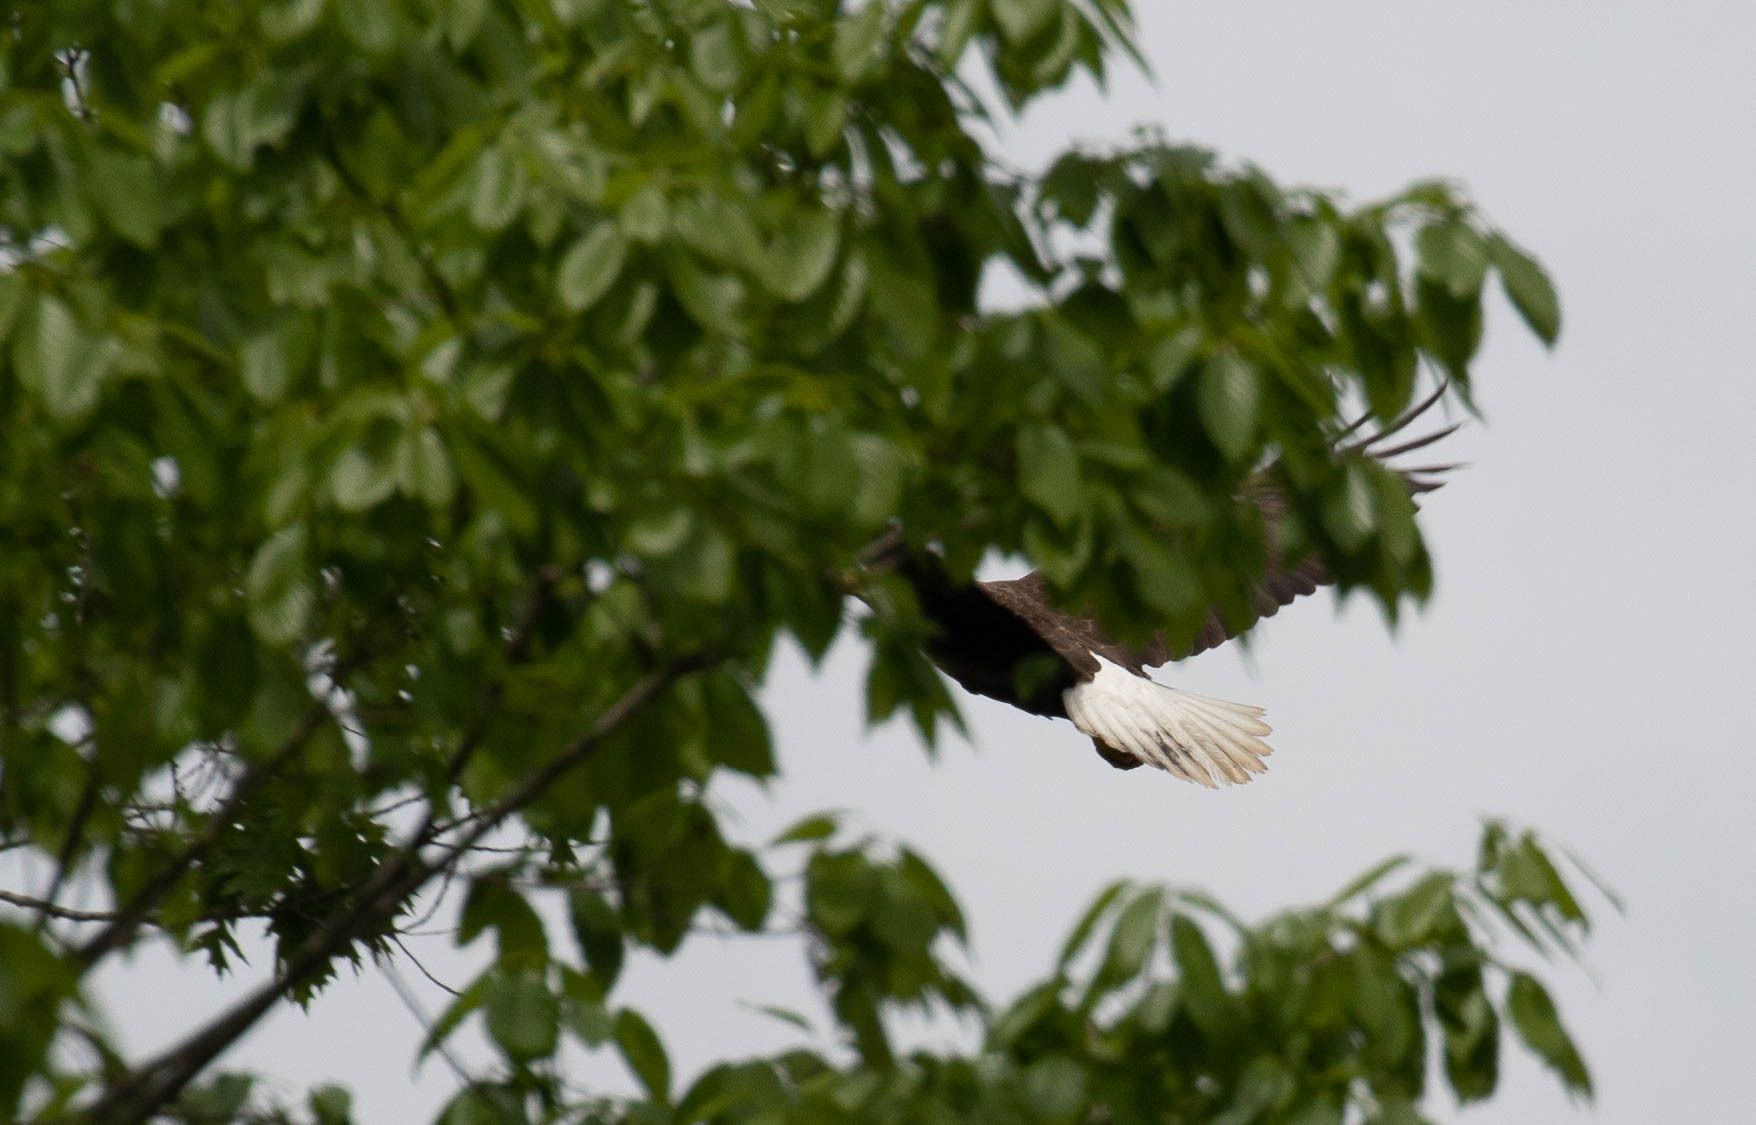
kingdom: Animalia
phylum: Chordata
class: Aves
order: Accipitriformes
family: Accipitridae
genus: Haliaeetus
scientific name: Haliaeetus leucocephalus
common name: Bald eagle
